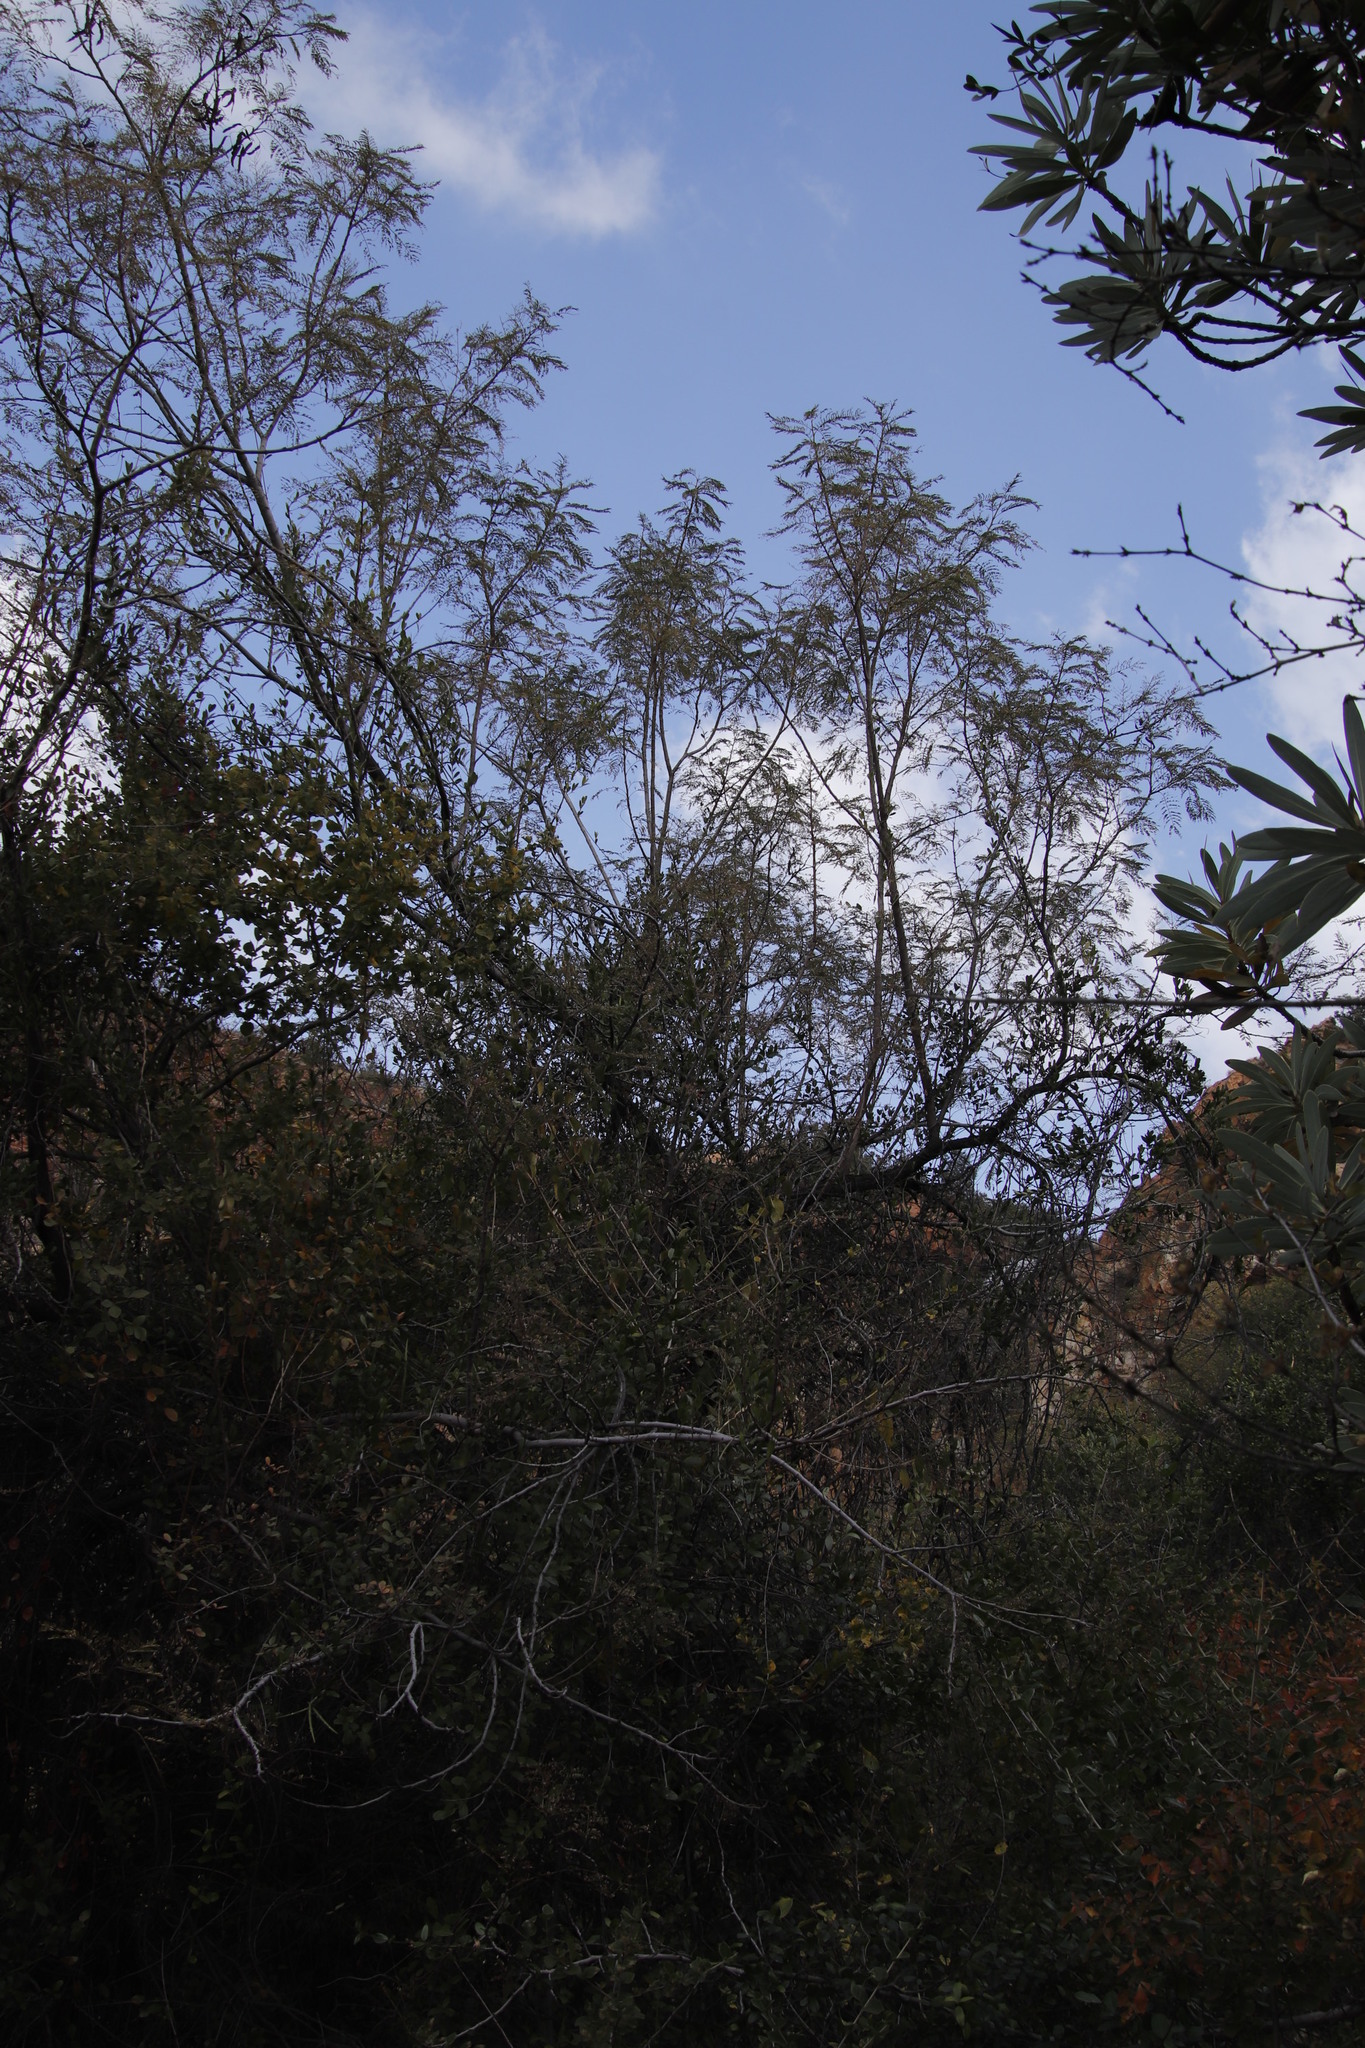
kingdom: Plantae
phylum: Tracheophyta
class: Magnoliopsida
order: Fabales
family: Fabaceae
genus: Senegalia
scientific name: Senegalia caffra
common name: Cat thorn
